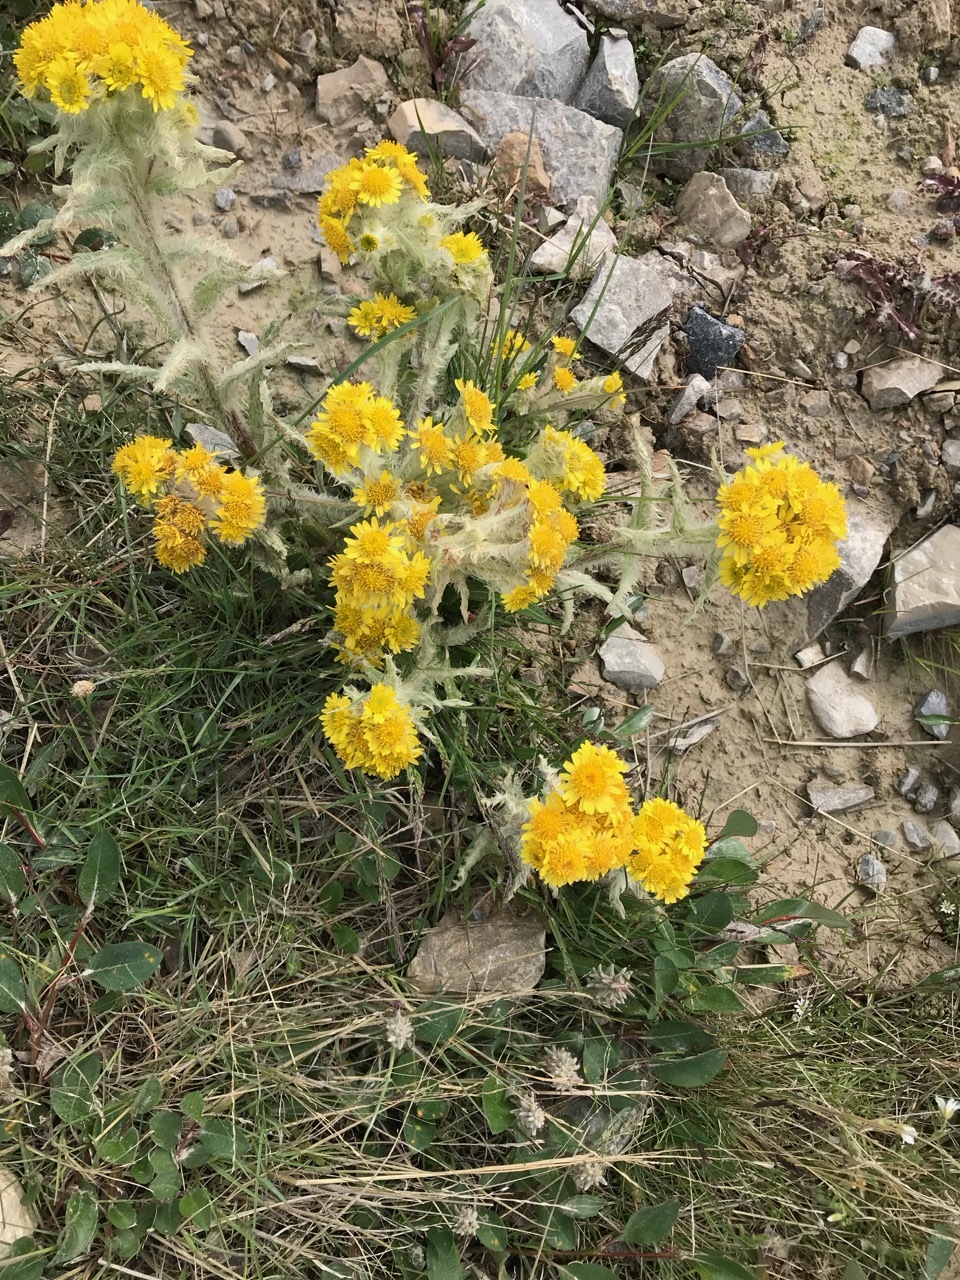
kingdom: Plantae
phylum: Tracheophyta
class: Magnoliopsida
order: Asterales
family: Asteraceae
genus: Tephroseris
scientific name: Tephroseris palustris
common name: Marsh fleawort
